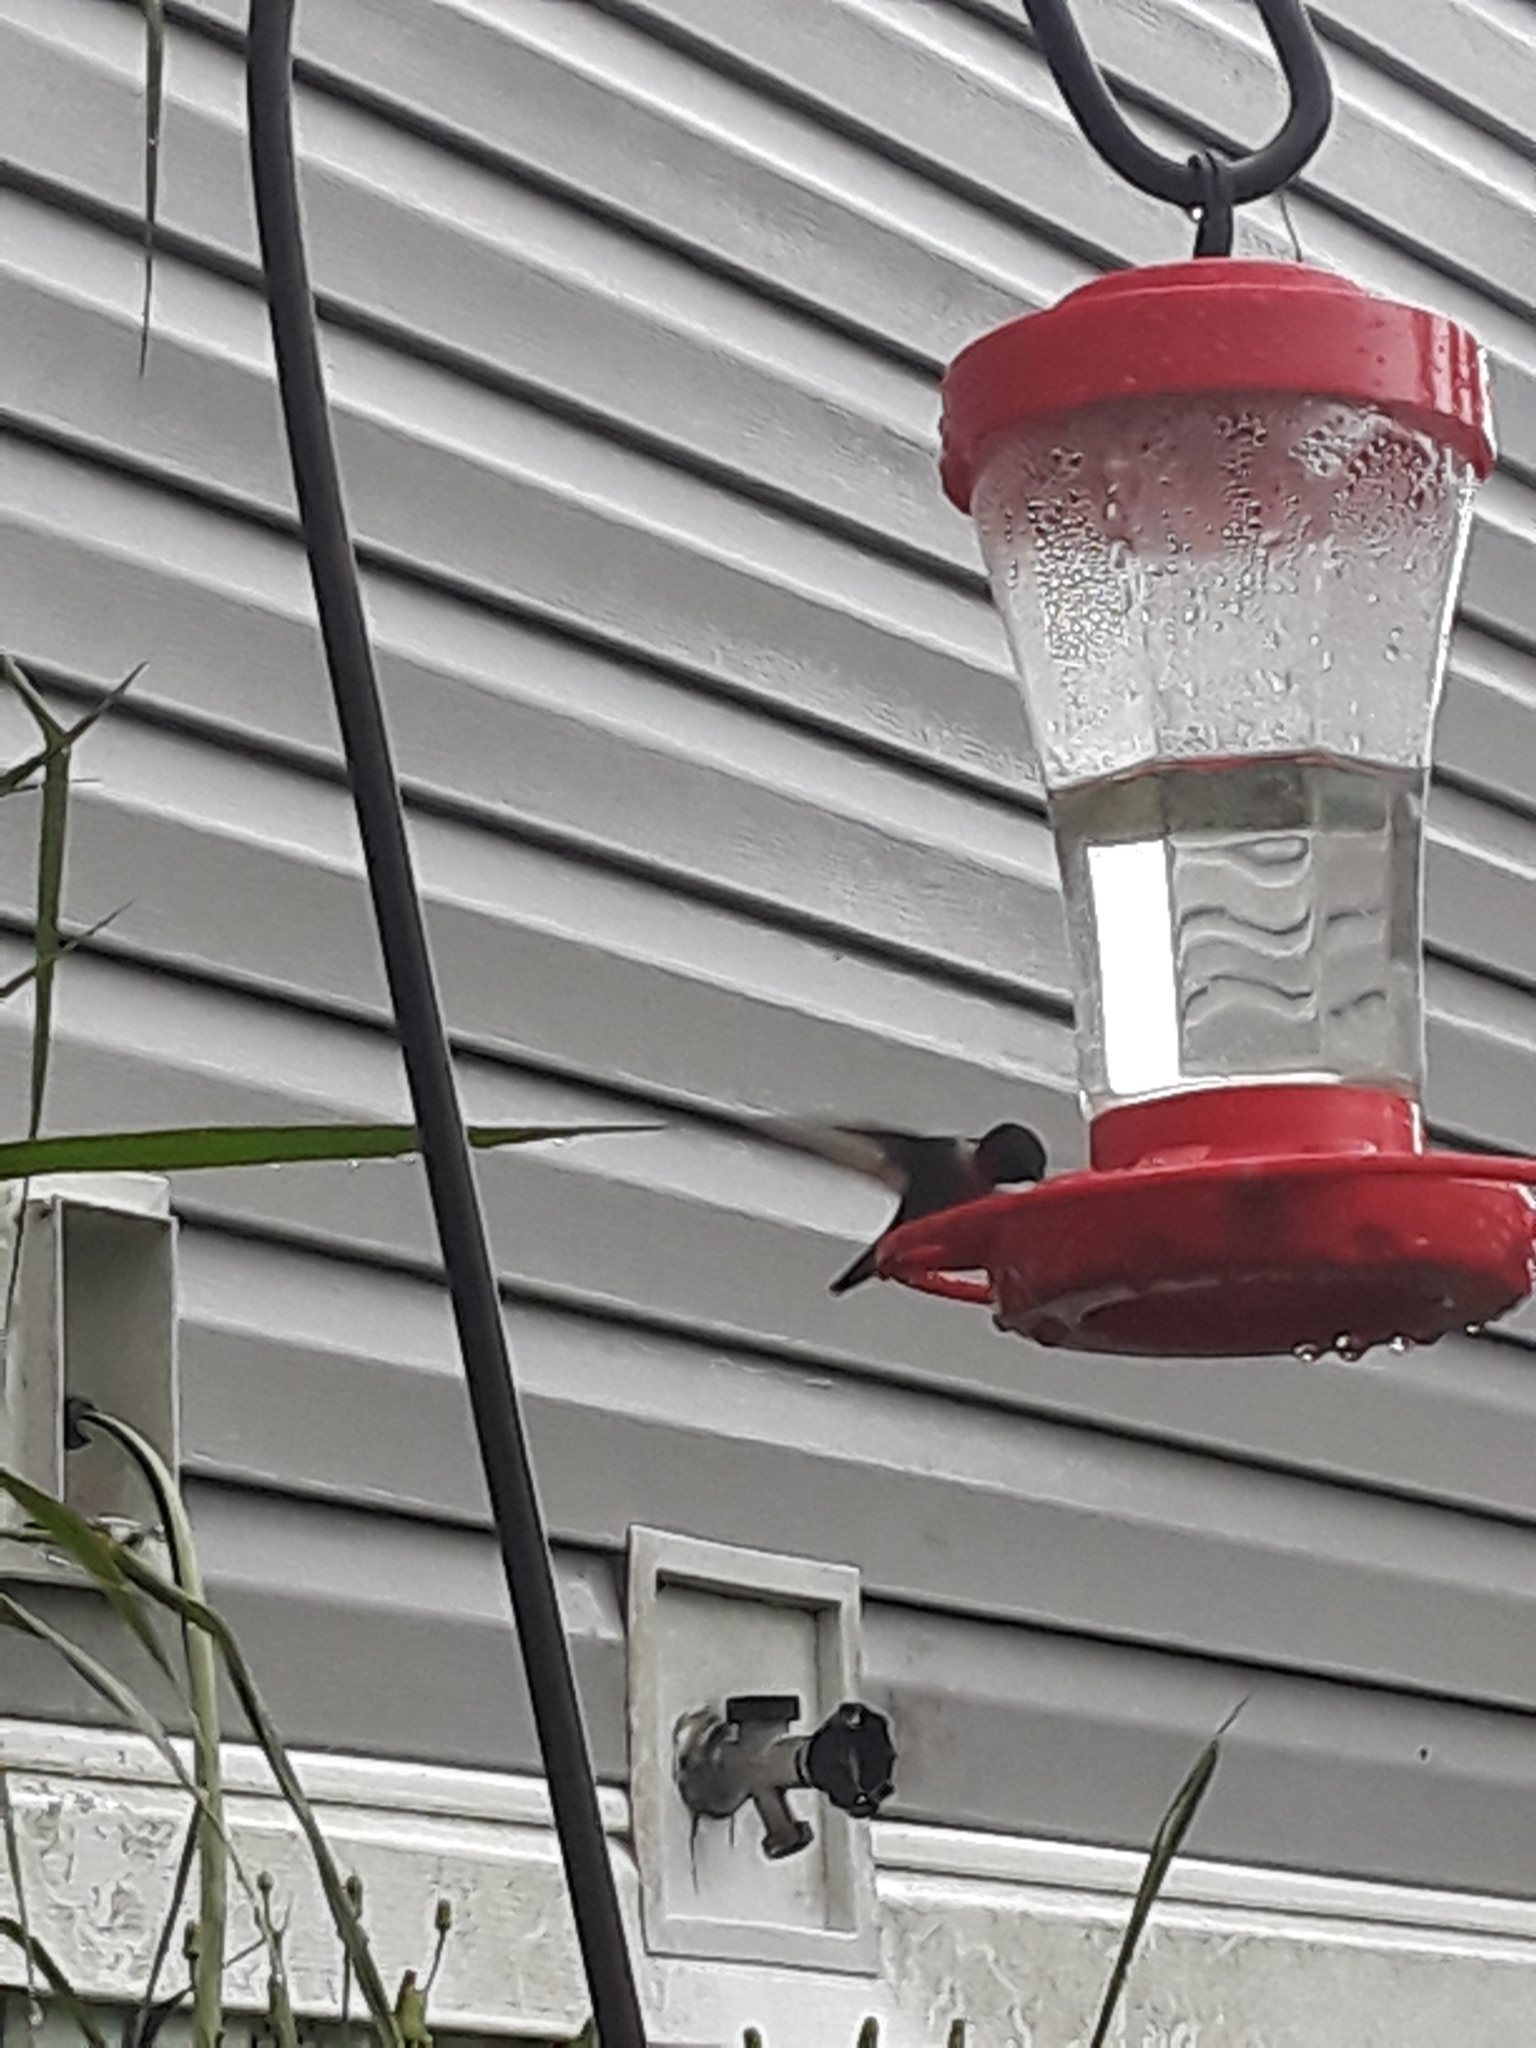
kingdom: Animalia
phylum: Chordata
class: Aves
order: Apodiformes
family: Trochilidae
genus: Archilochus
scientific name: Archilochus colubris
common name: Ruby-throated hummingbird
